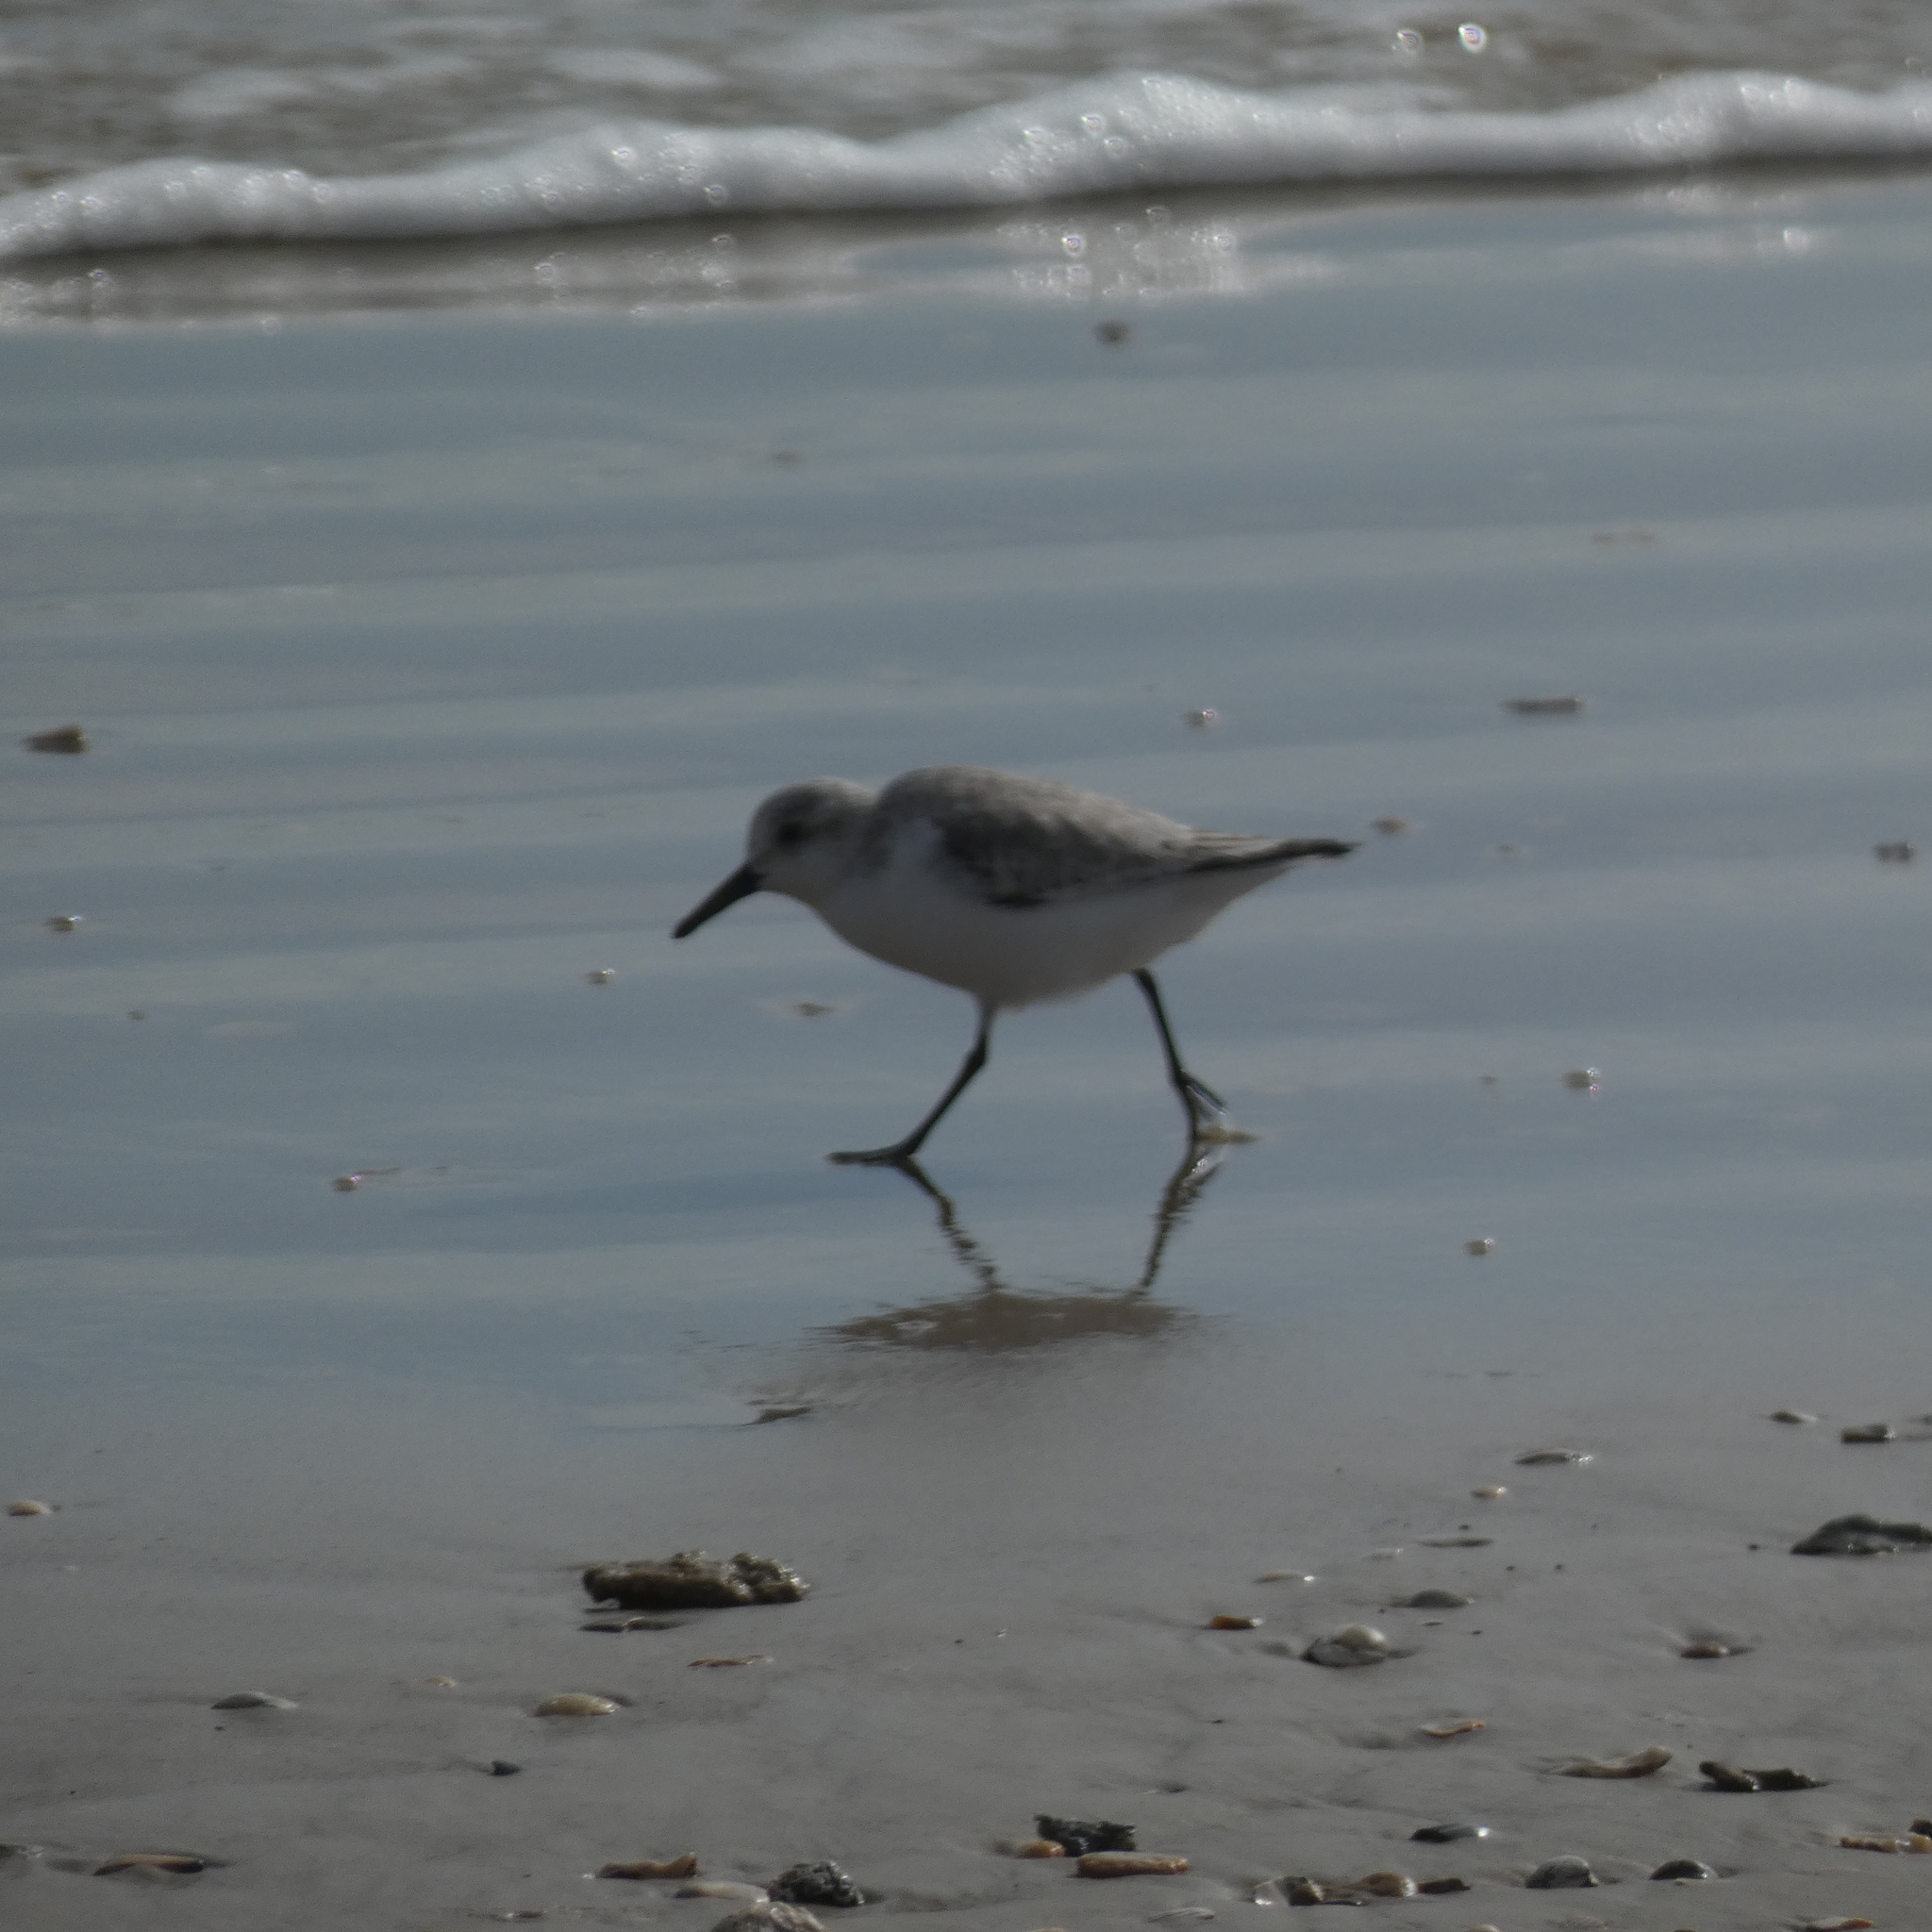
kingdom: Animalia
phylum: Chordata
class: Aves
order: Charadriiformes
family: Scolopacidae
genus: Calidris
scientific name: Calidris alba
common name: Sanderling
